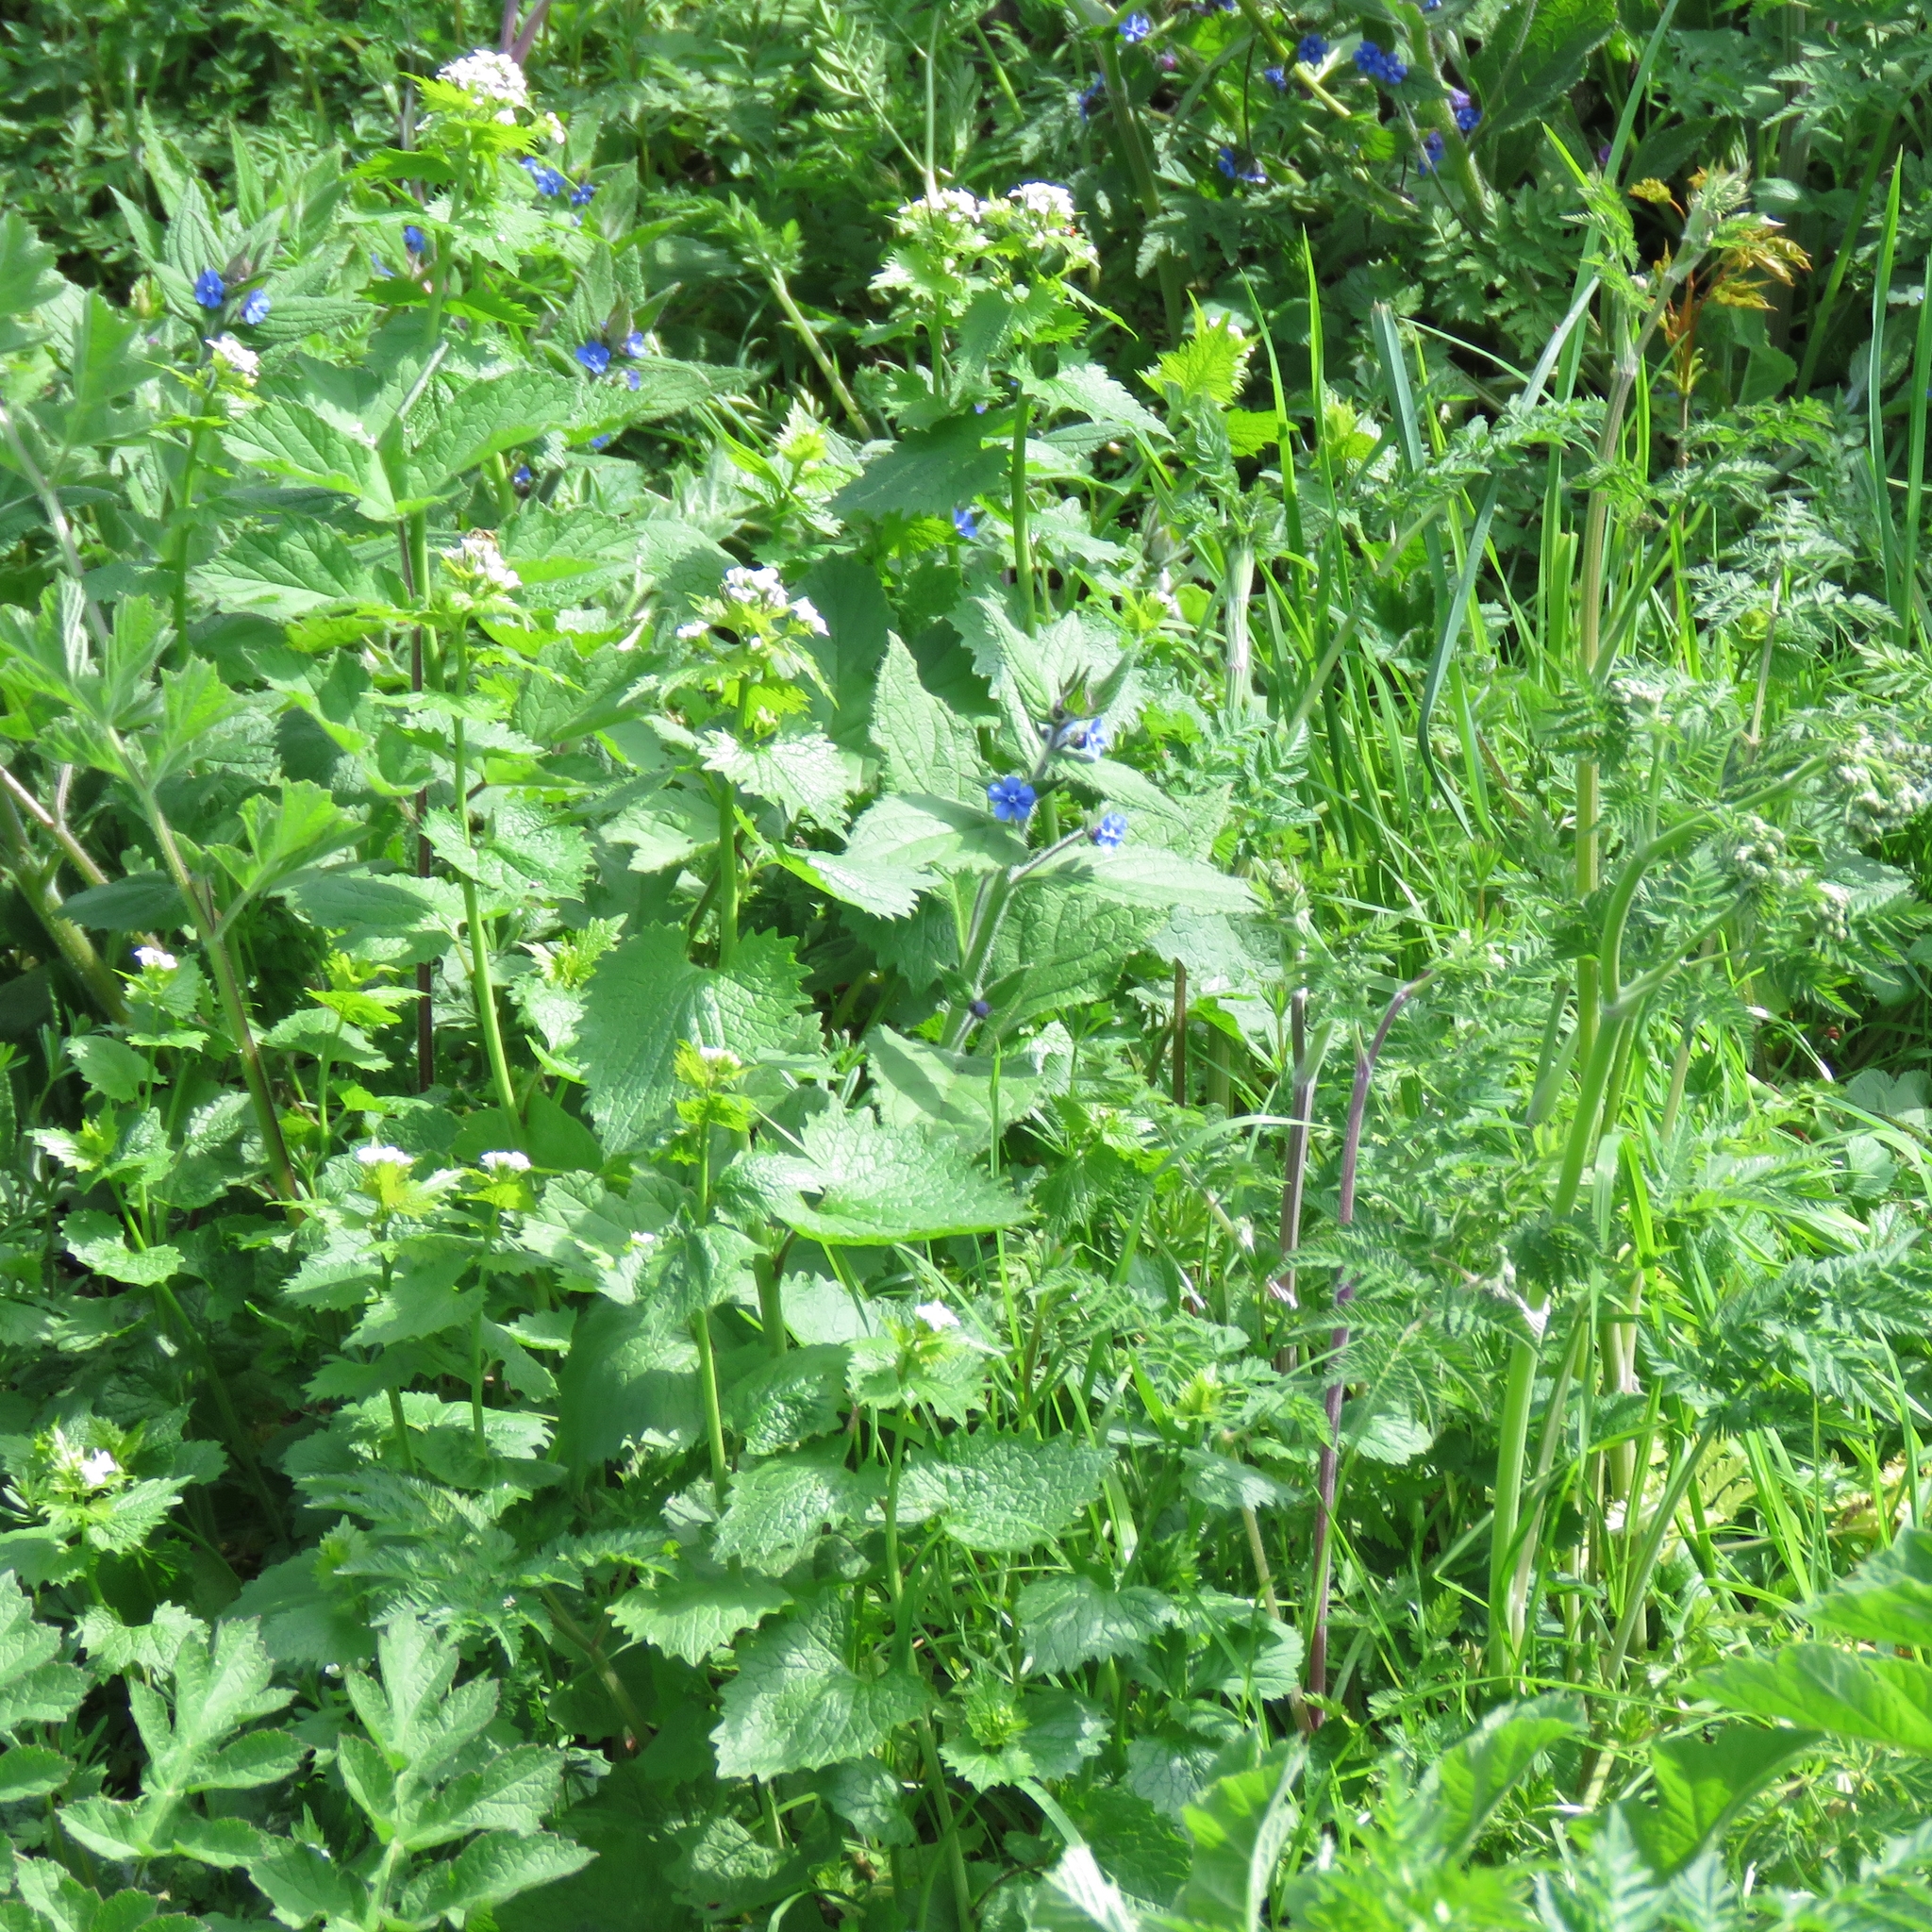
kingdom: Plantae
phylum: Tracheophyta
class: Magnoliopsida
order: Boraginales
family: Boraginaceae
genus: Pentaglottis
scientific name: Pentaglottis sempervirens
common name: Green alkanet
